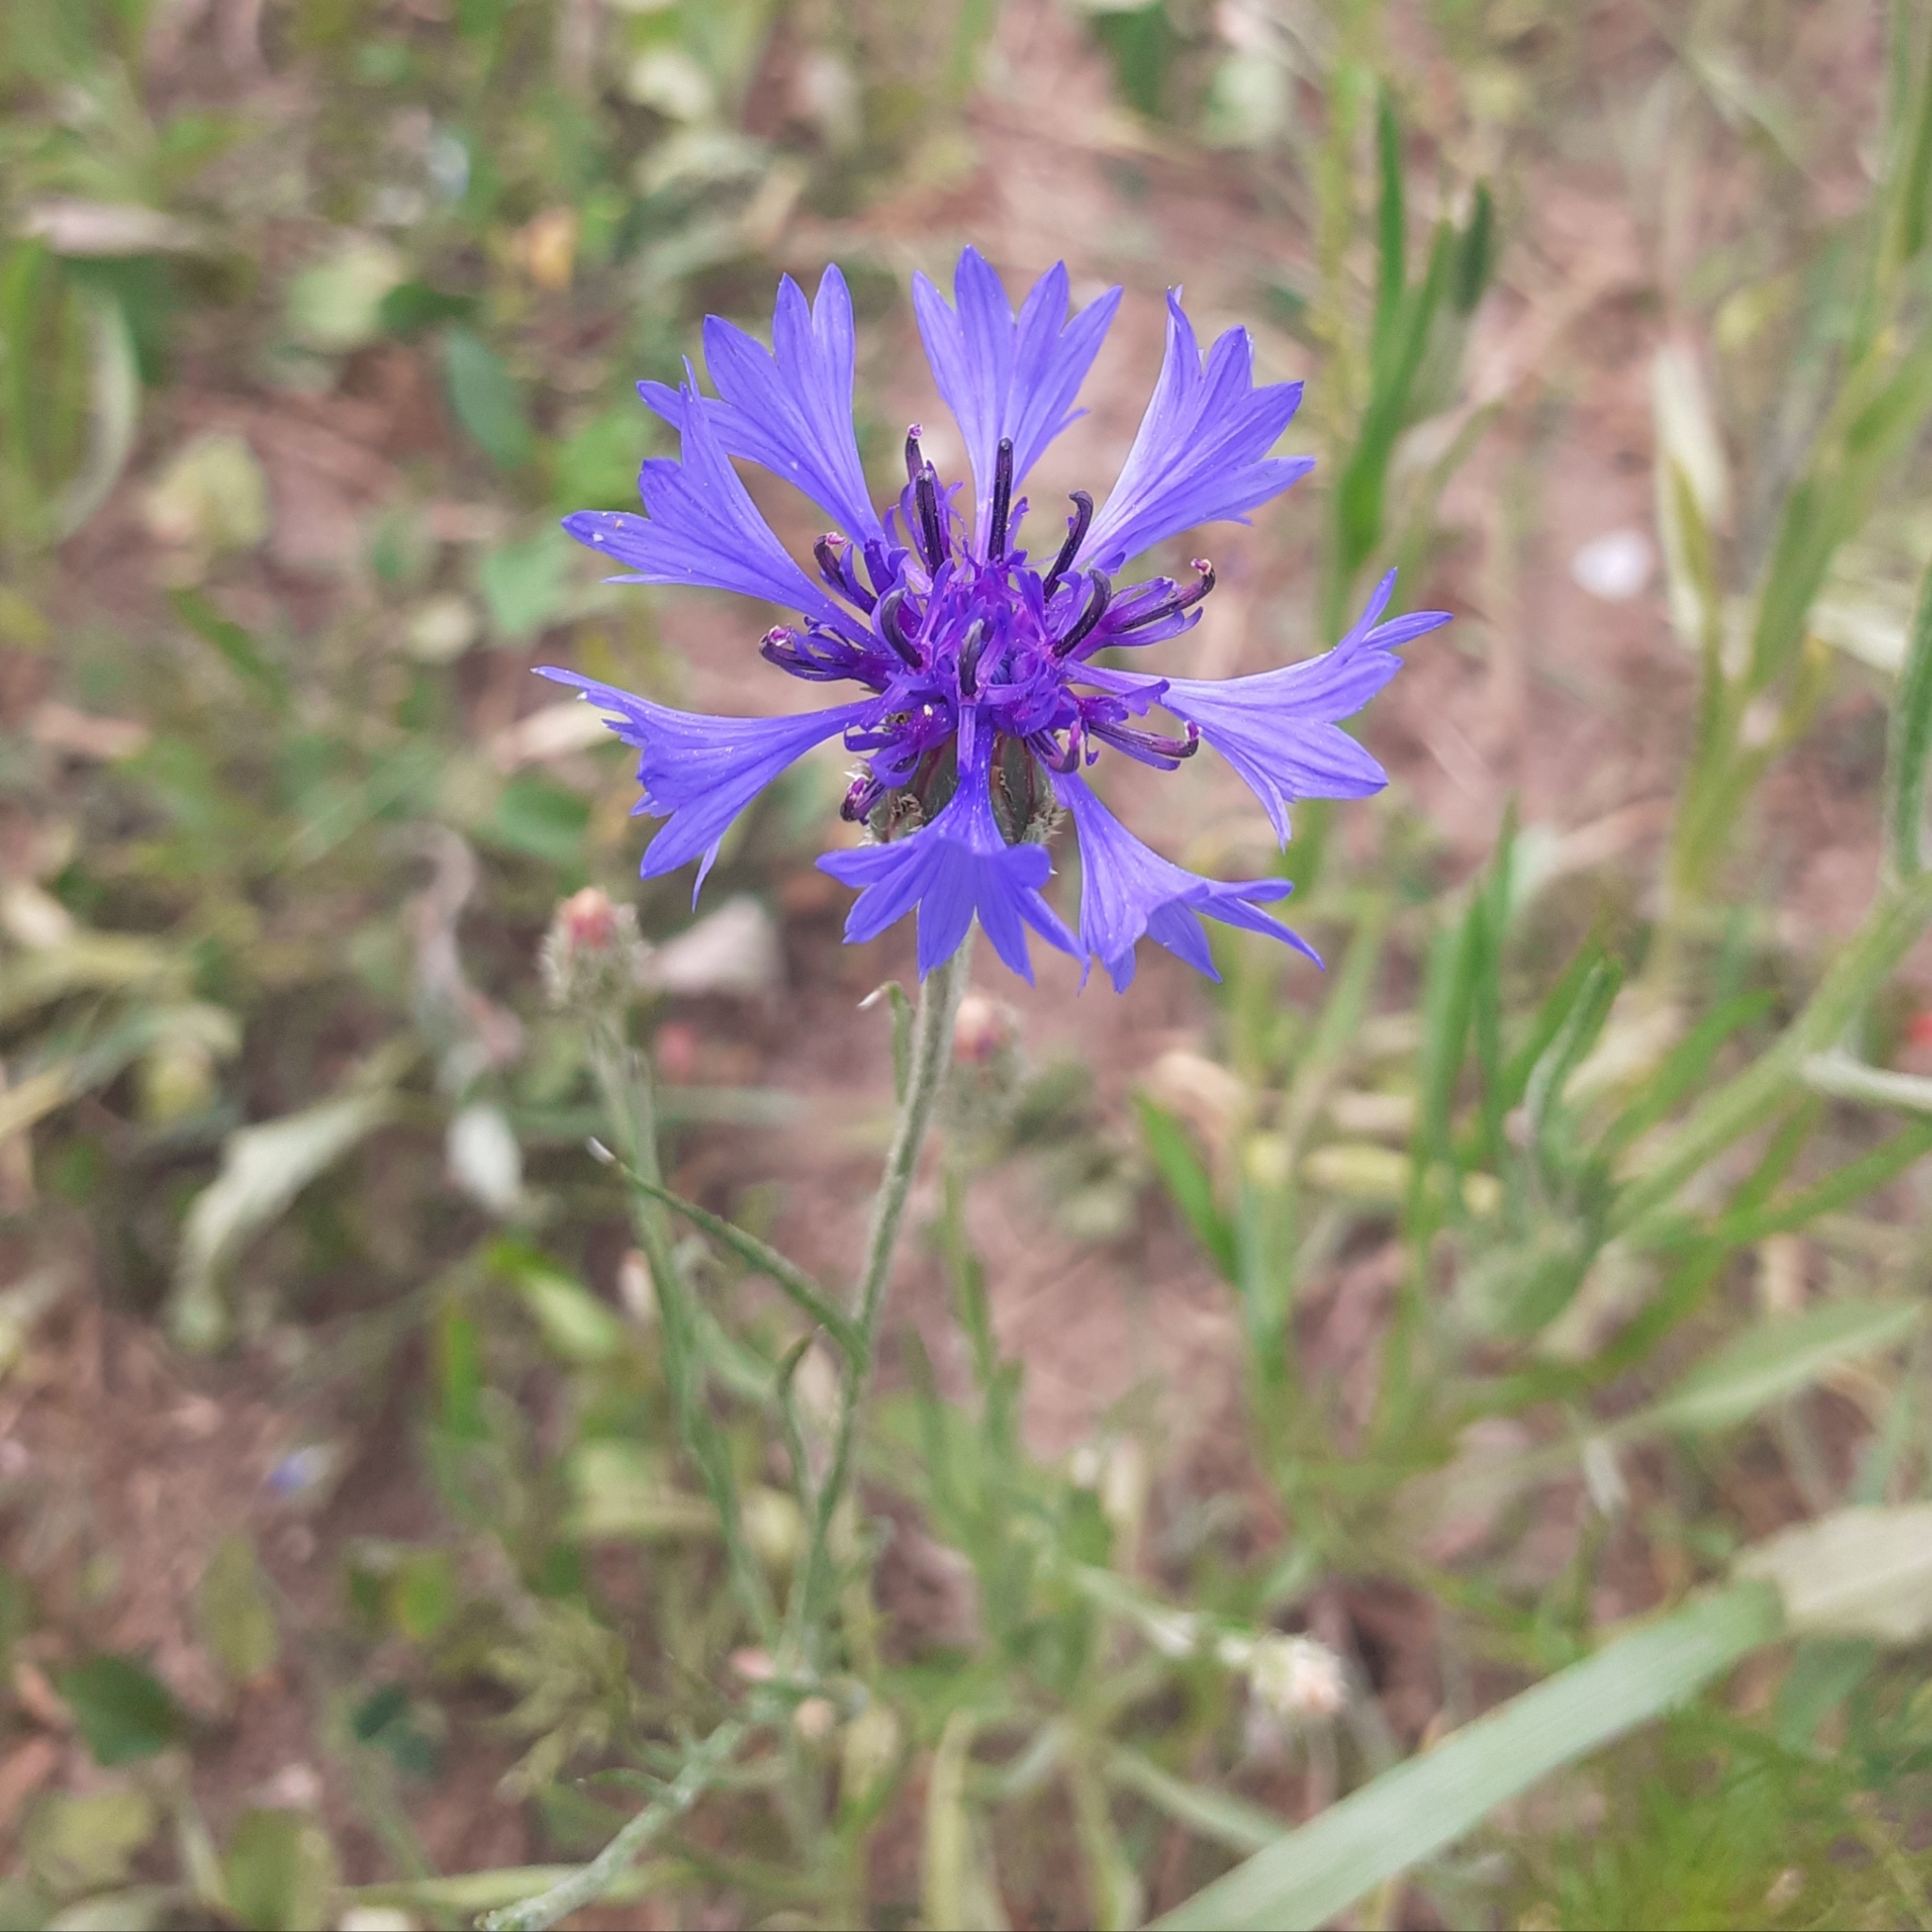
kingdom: Plantae
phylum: Tracheophyta
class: Magnoliopsida
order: Asterales
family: Asteraceae
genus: Centaurea
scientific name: Centaurea cyanus
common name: Cornflower
